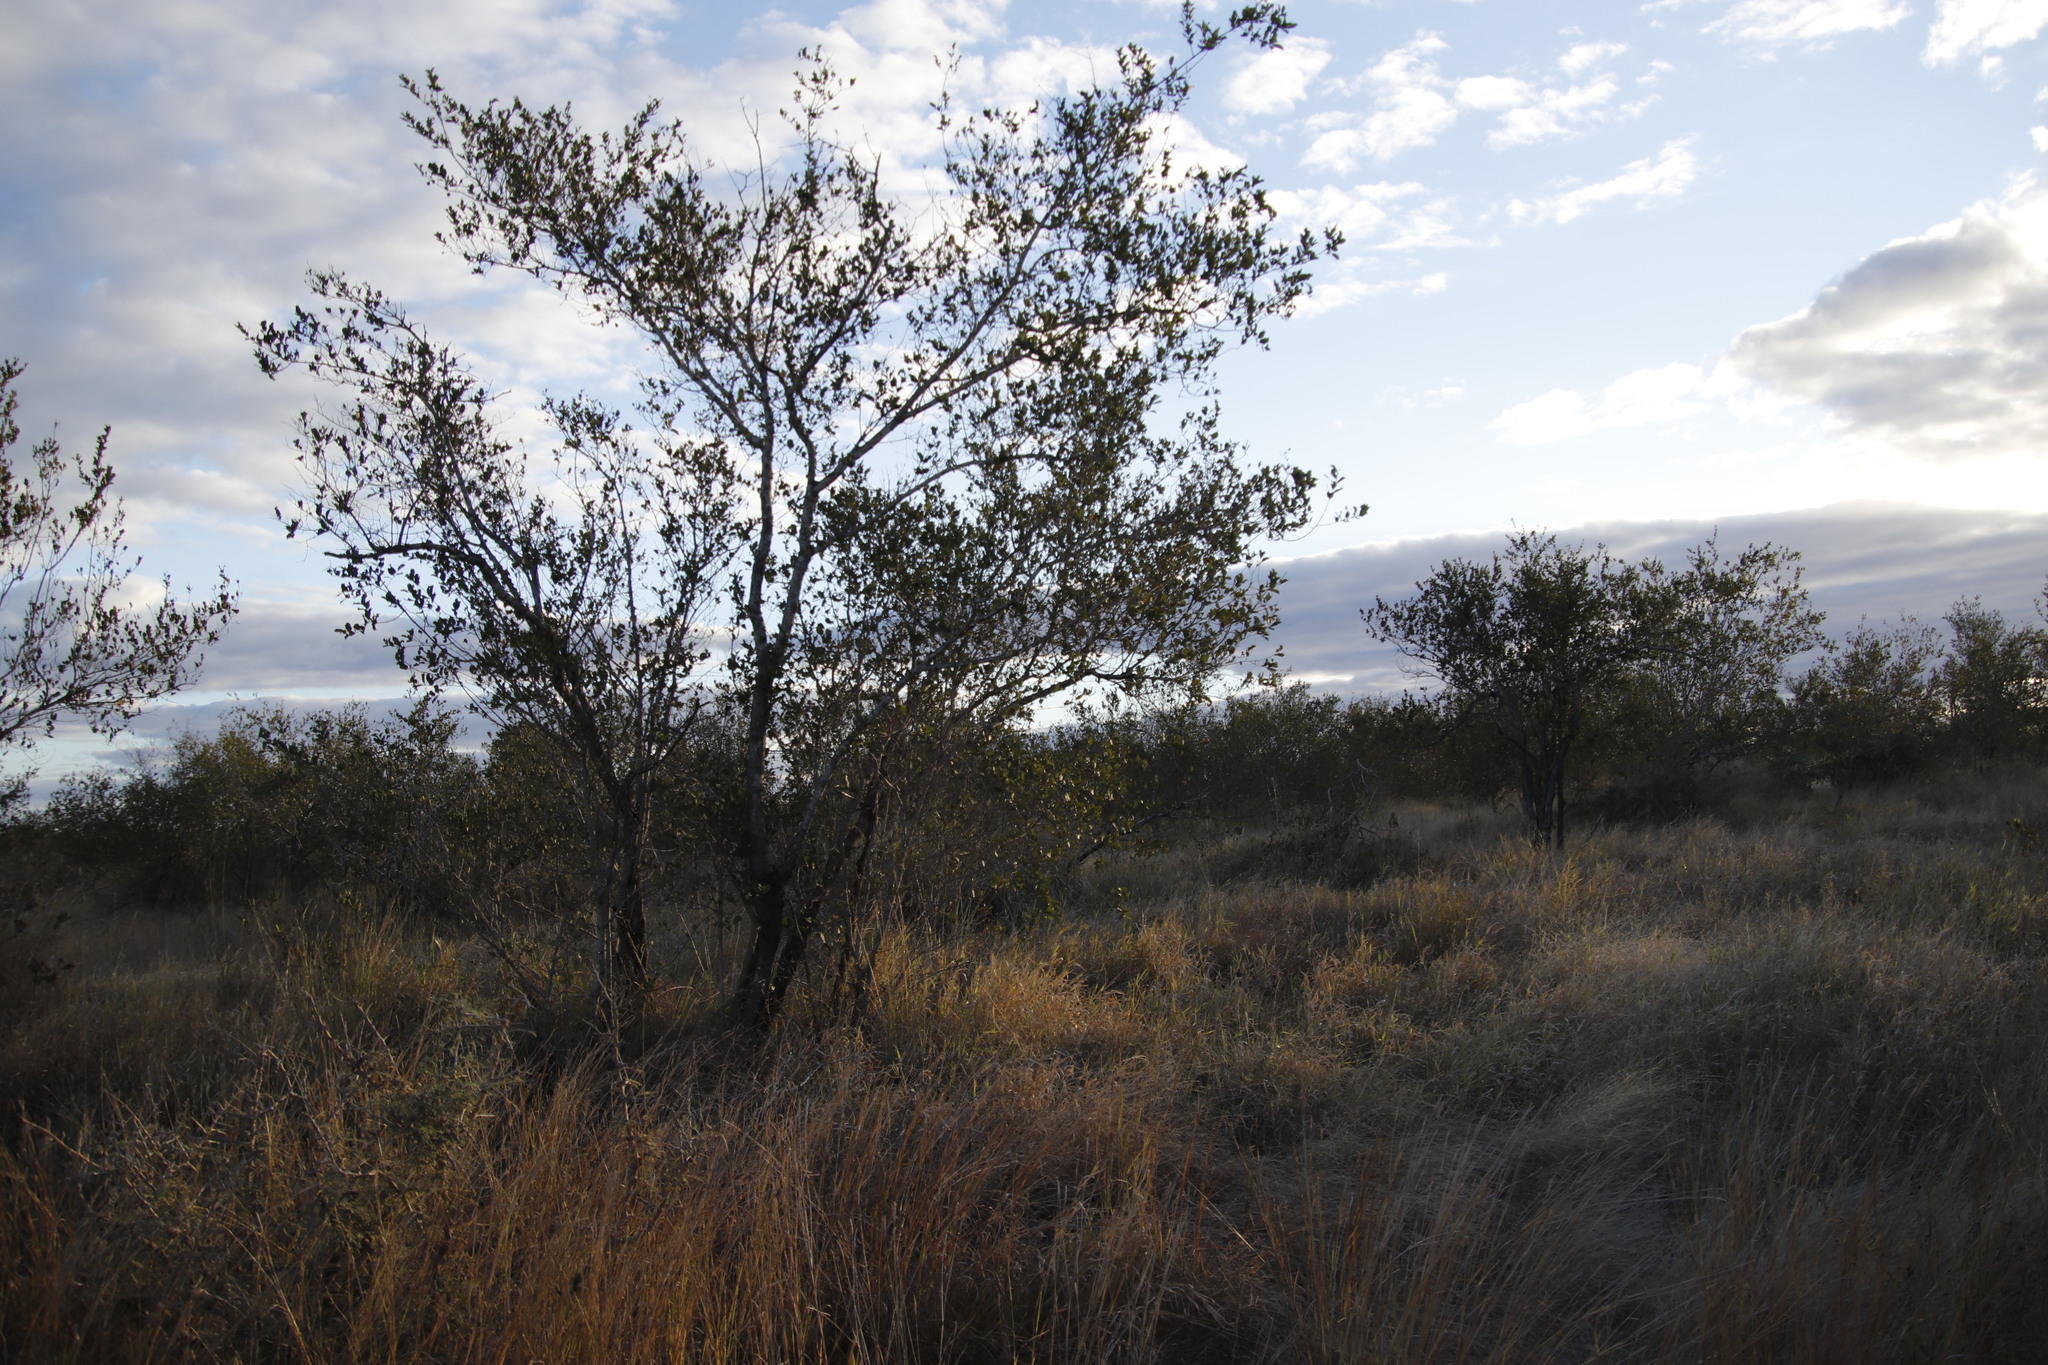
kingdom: Plantae
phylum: Tracheophyta
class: Magnoliopsida
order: Myrtales
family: Combretaceae
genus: Combretum
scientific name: Combretum apiculatum
